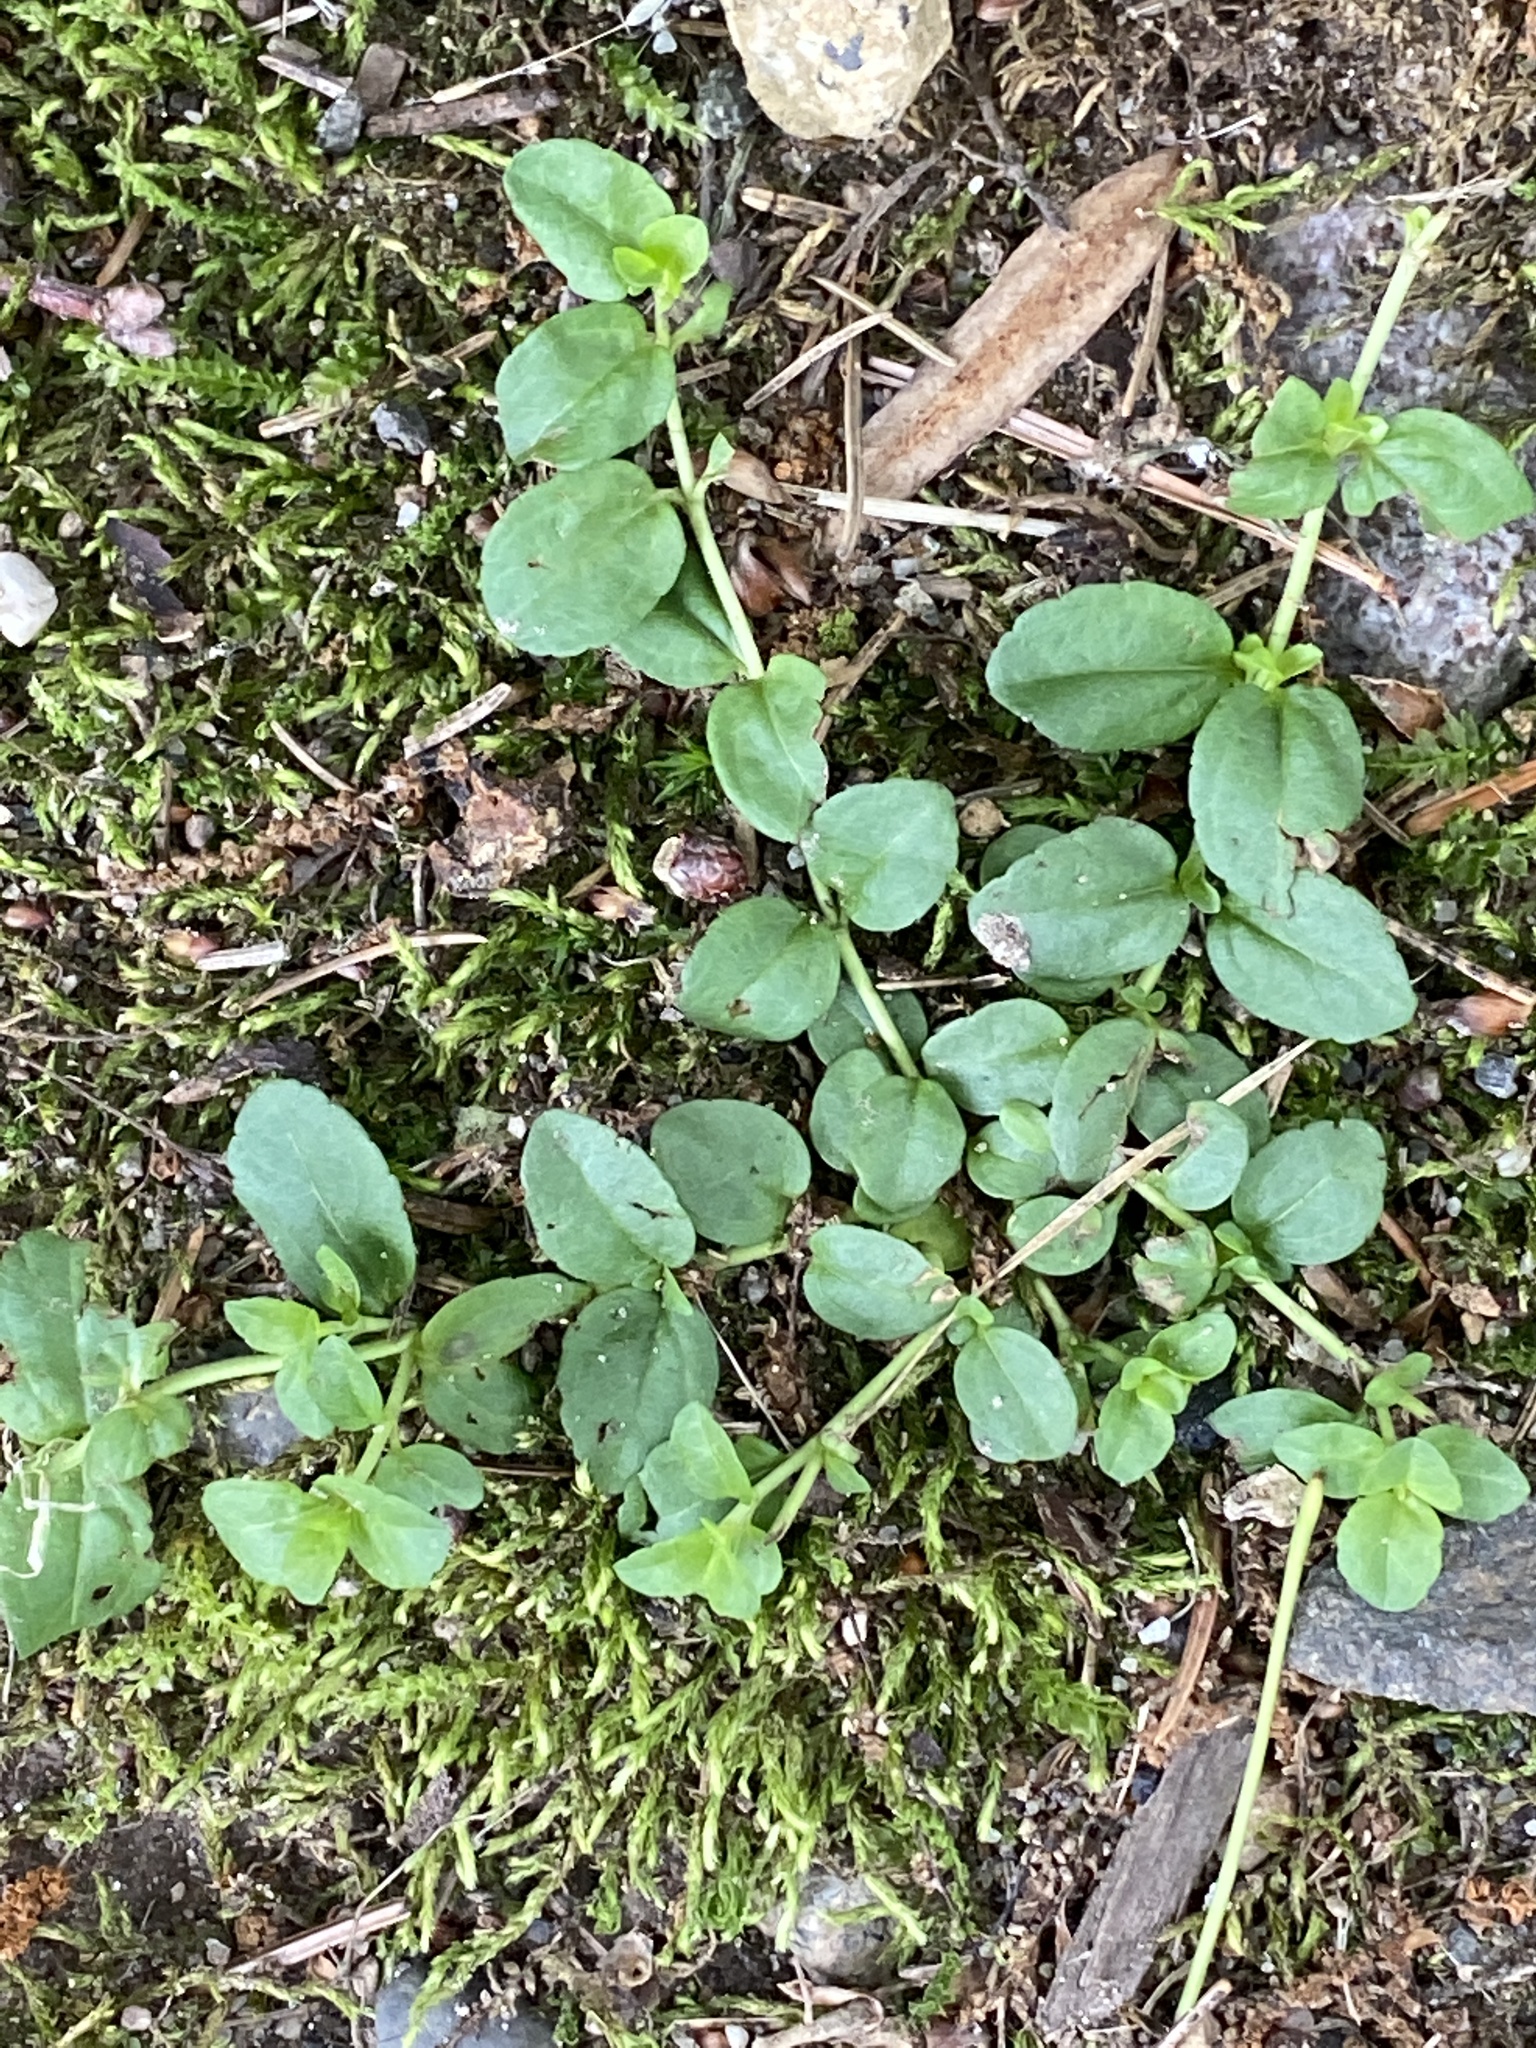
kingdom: Plantae
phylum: Tracheophyta
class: Magnoliopsida
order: Lamiales
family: Plantaginaceae
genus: Veronica
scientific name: Veronica serpyllifolia
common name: Thyme-leaved speedwell
